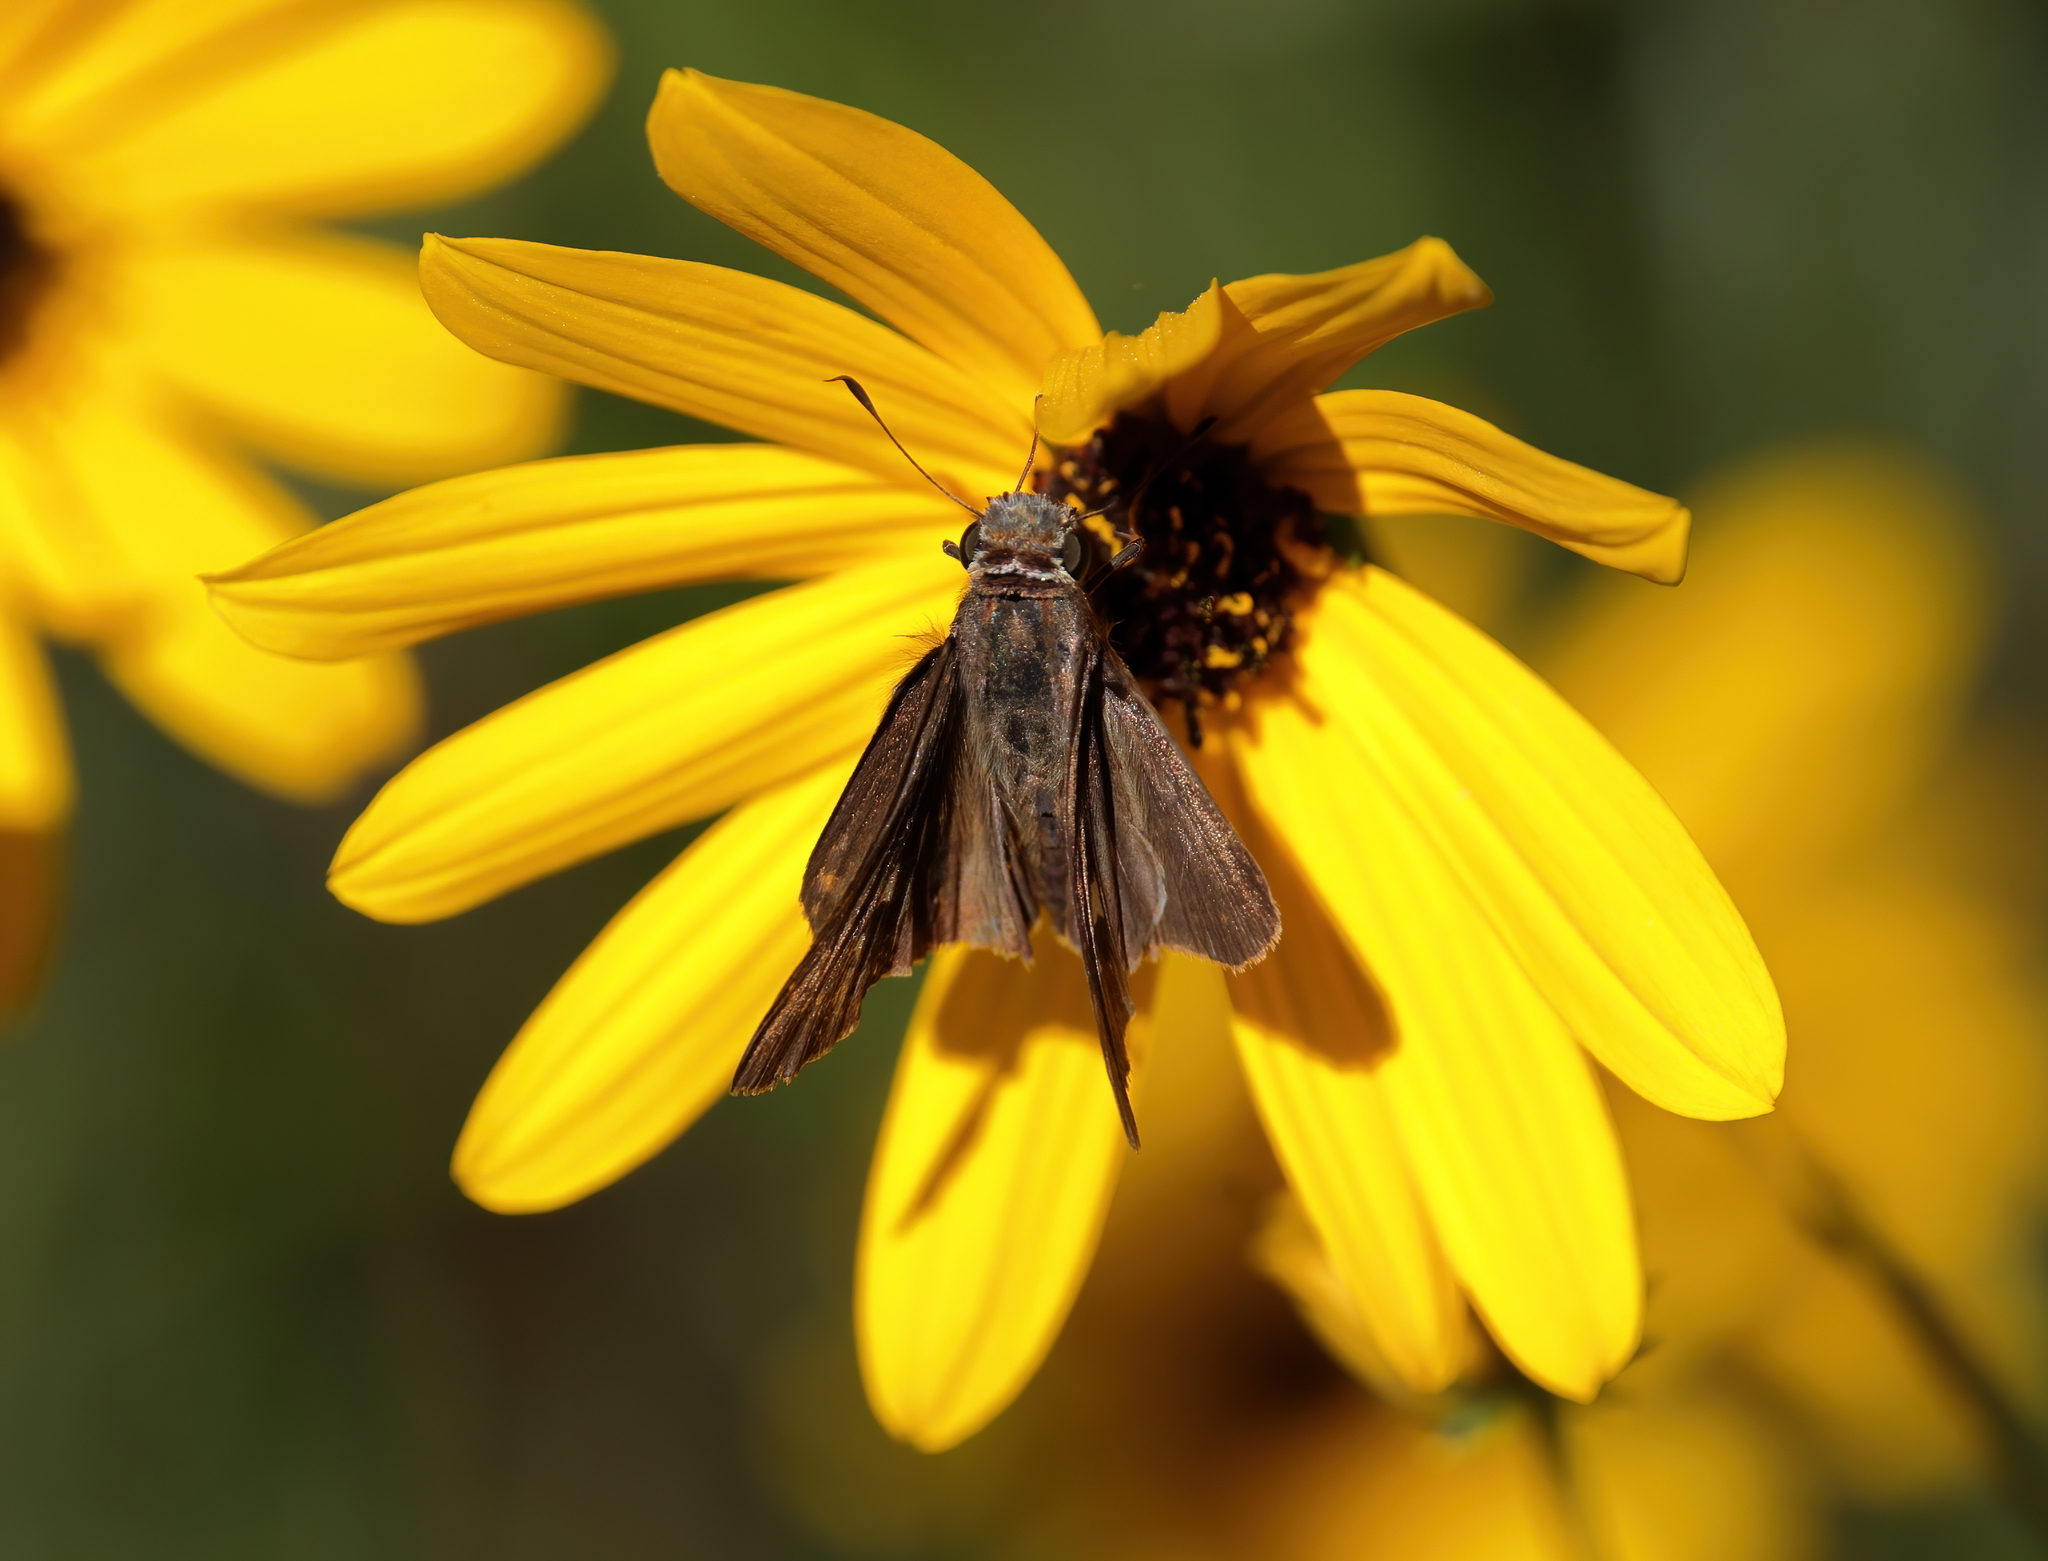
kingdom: Animalia
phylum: Arthropoda
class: Insecta
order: Lepidoptera
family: Hesperiidae
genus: Panoquina
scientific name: Panoquina ocola
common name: Ocola skipper
